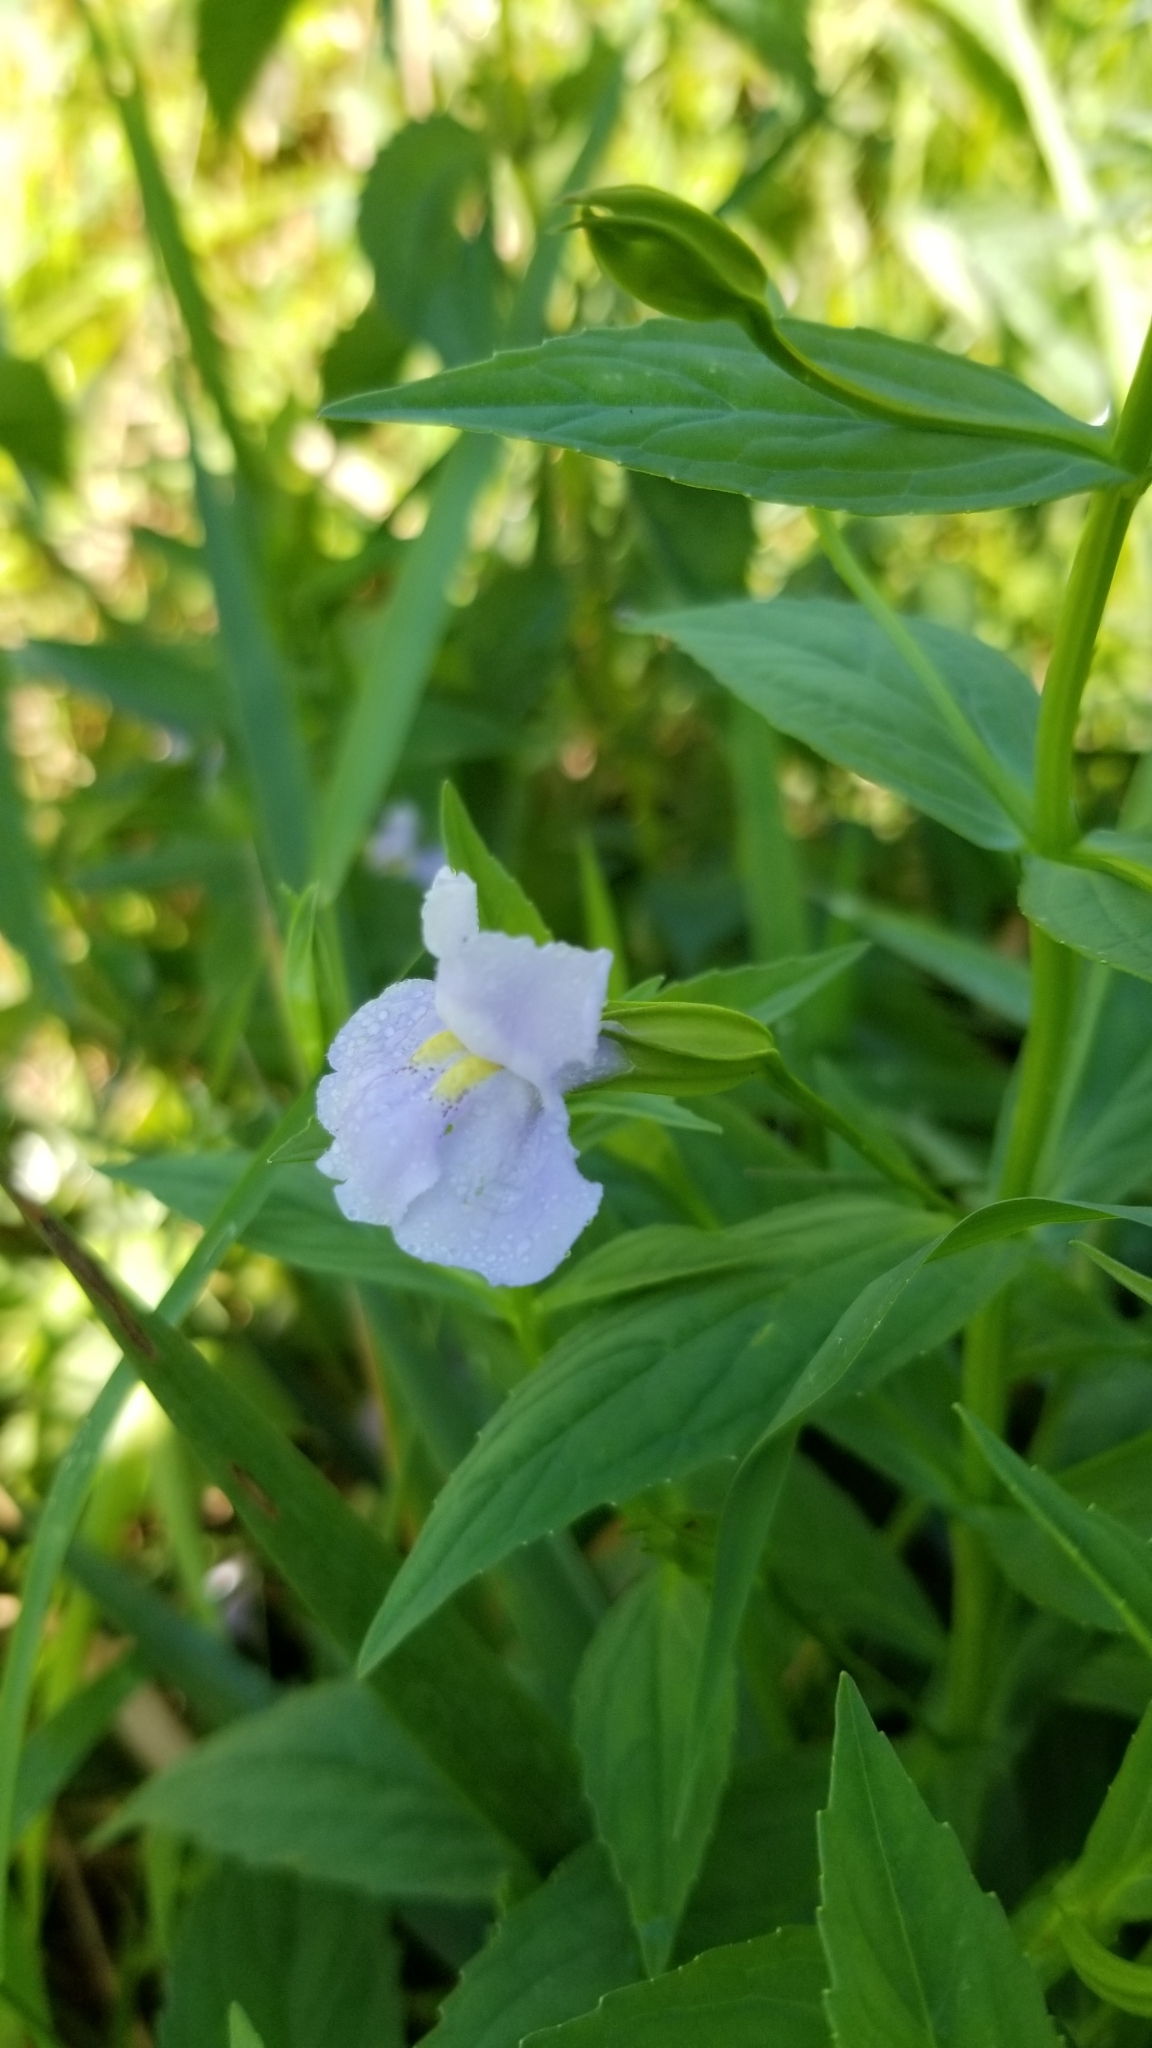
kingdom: Plantae
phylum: Tracheophyta
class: Magnoliopsida
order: Lamiales
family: Phrymaceae
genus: Mimulus
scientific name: Mimulus ringens
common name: Allegheny monkeyflower
